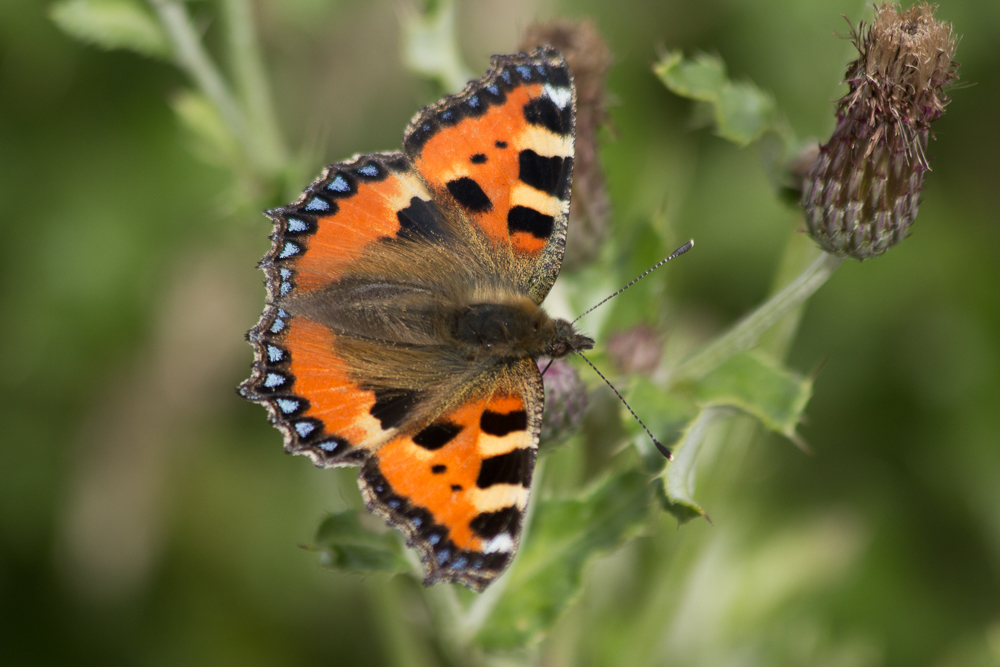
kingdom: Animalia
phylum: Arthropoda
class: Insecta
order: Lepidoptera
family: Nymphalidae
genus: Aglais
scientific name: Aglais urticae
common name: Small tortoiseshell
